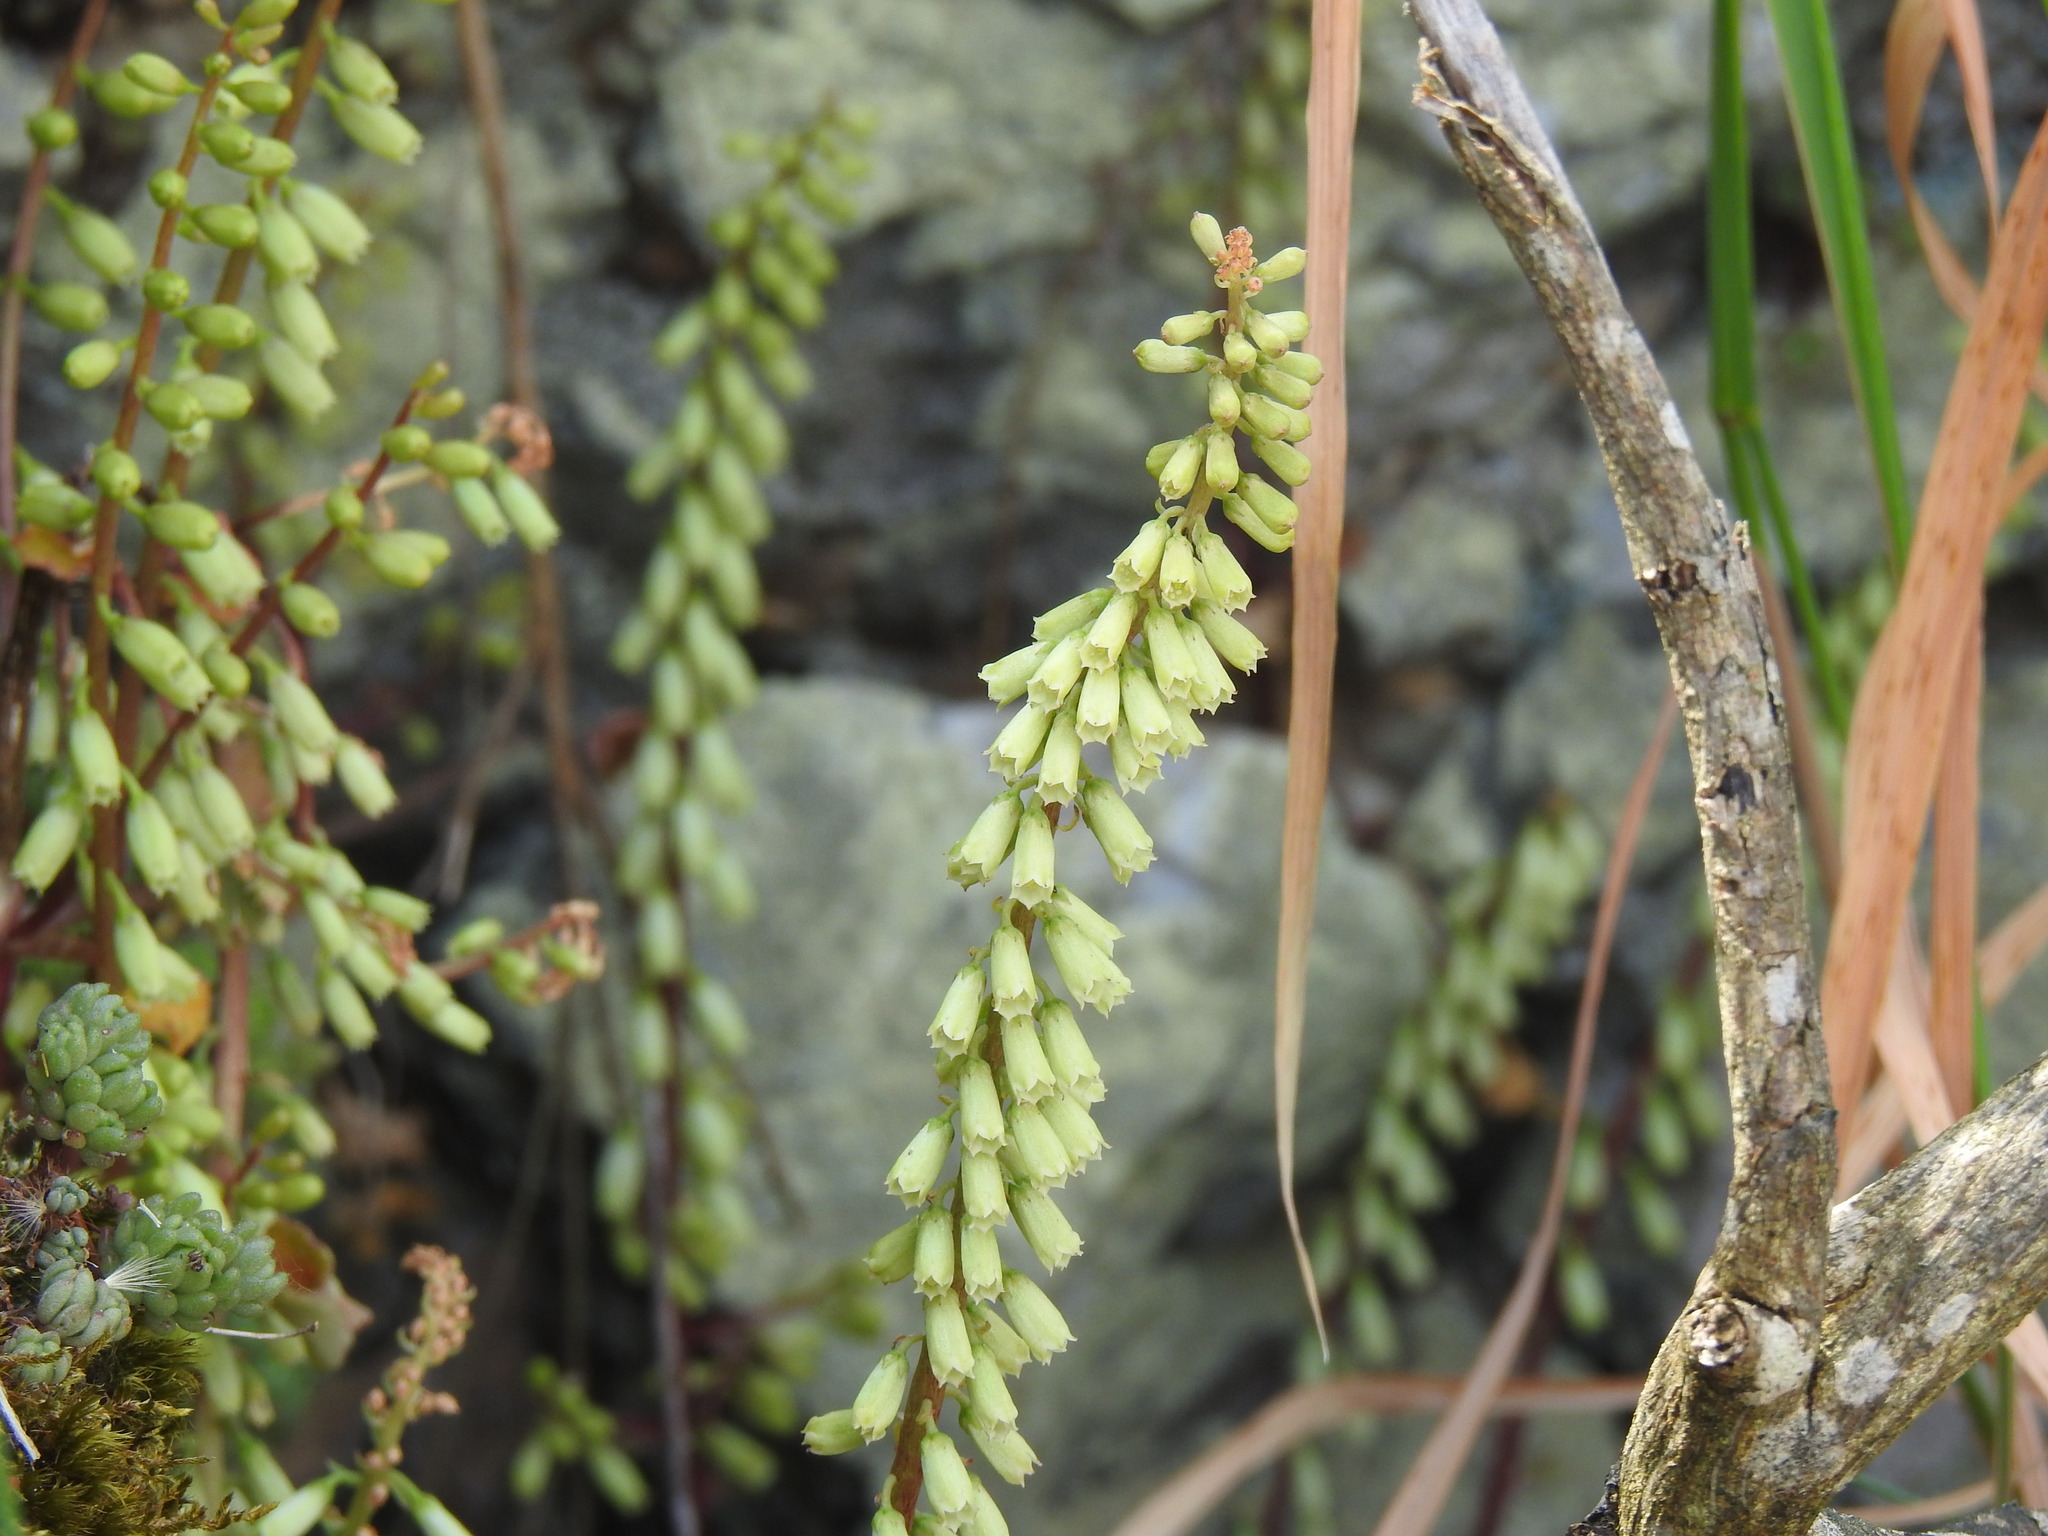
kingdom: Plantae
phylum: Tracheophyta
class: Magnoliopsida
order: Saxifragales
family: Crassulaceae
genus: Umbilicus
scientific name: Umbilicus rupestris
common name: Navelwort
